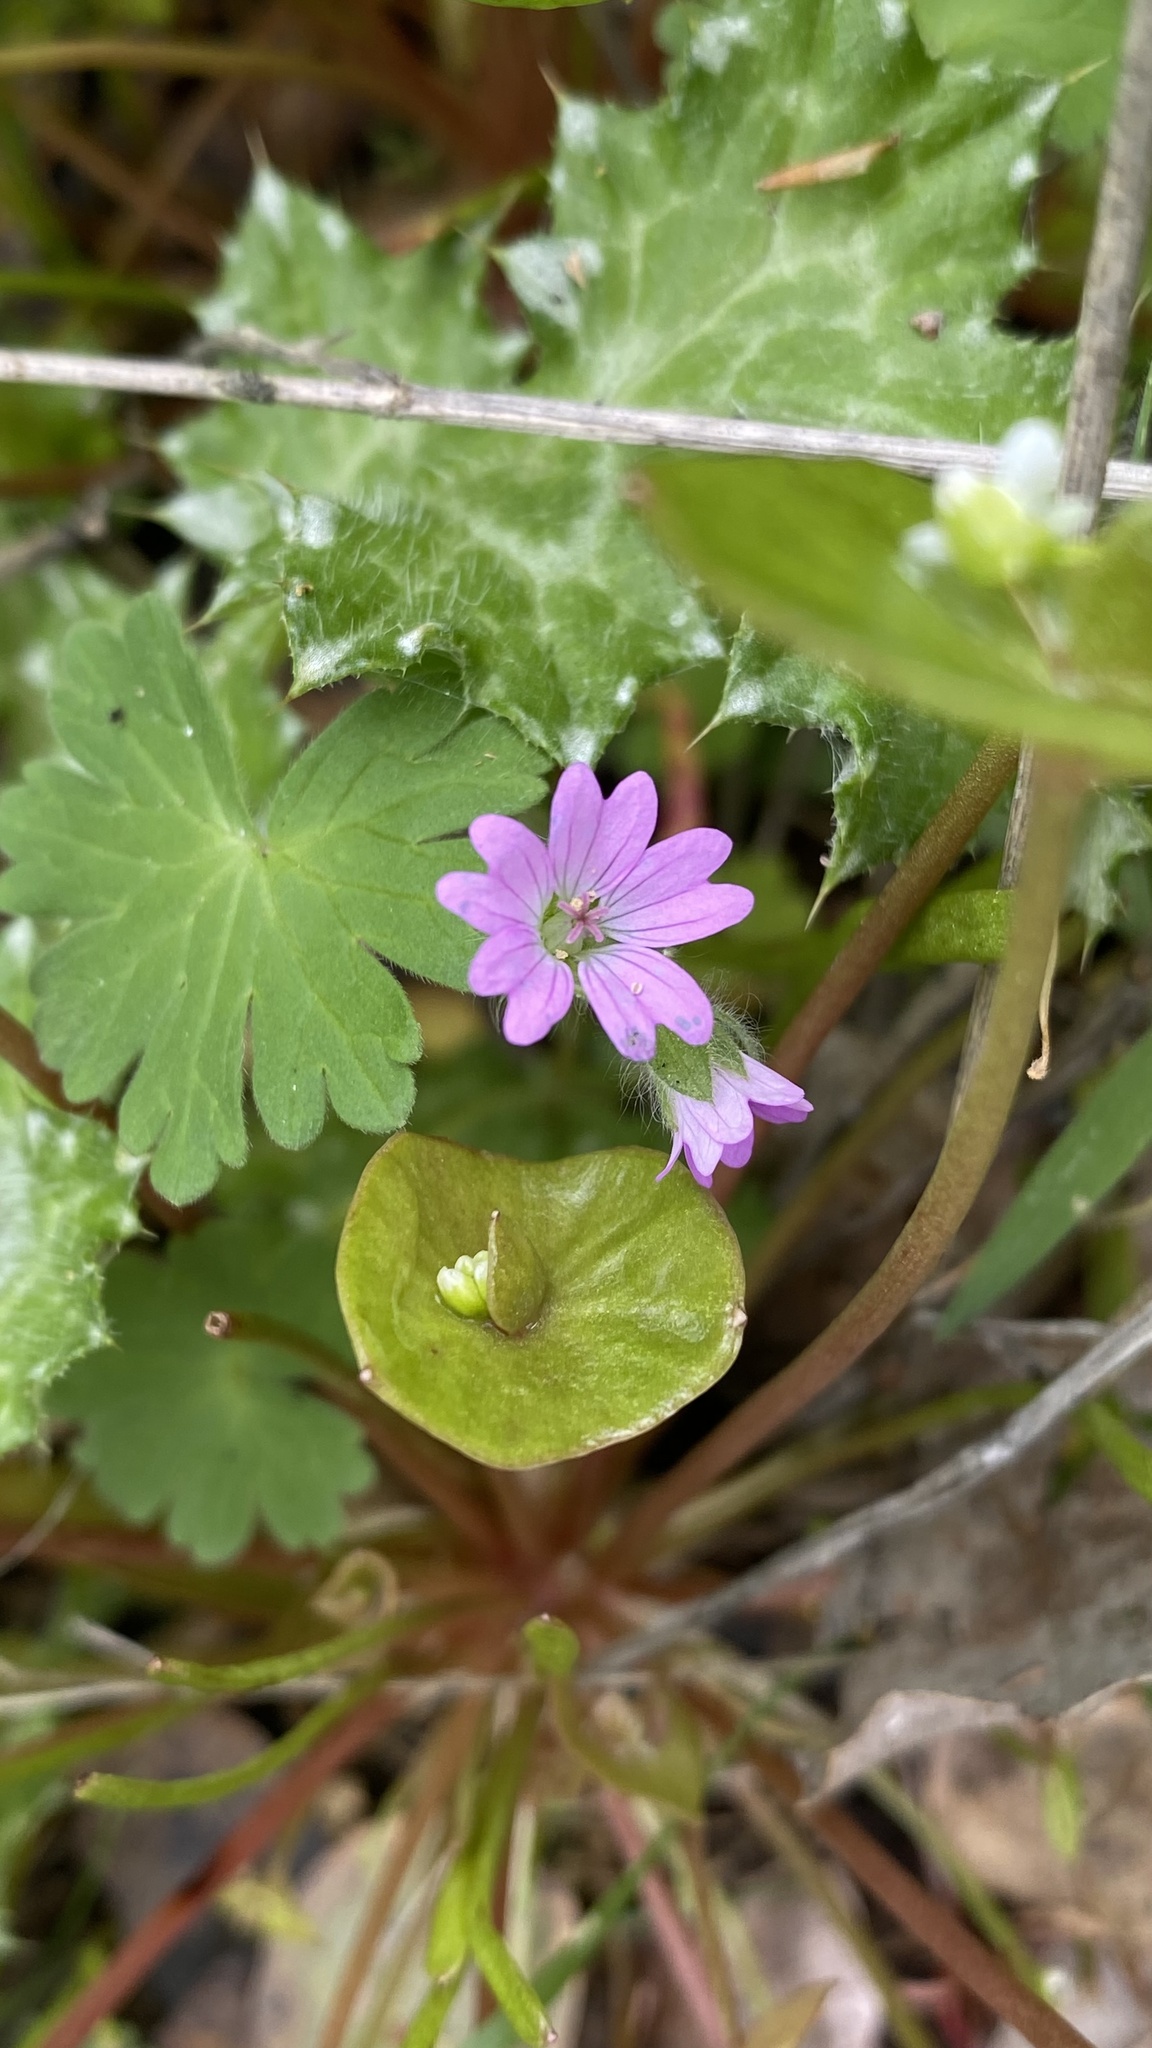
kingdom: Plantae
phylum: Tracheophyta
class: Magnoliopsida
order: Geraniales
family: Geraniaceae
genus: Geranium
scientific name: Geranium molle
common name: Dove's-foot crane's-bill
